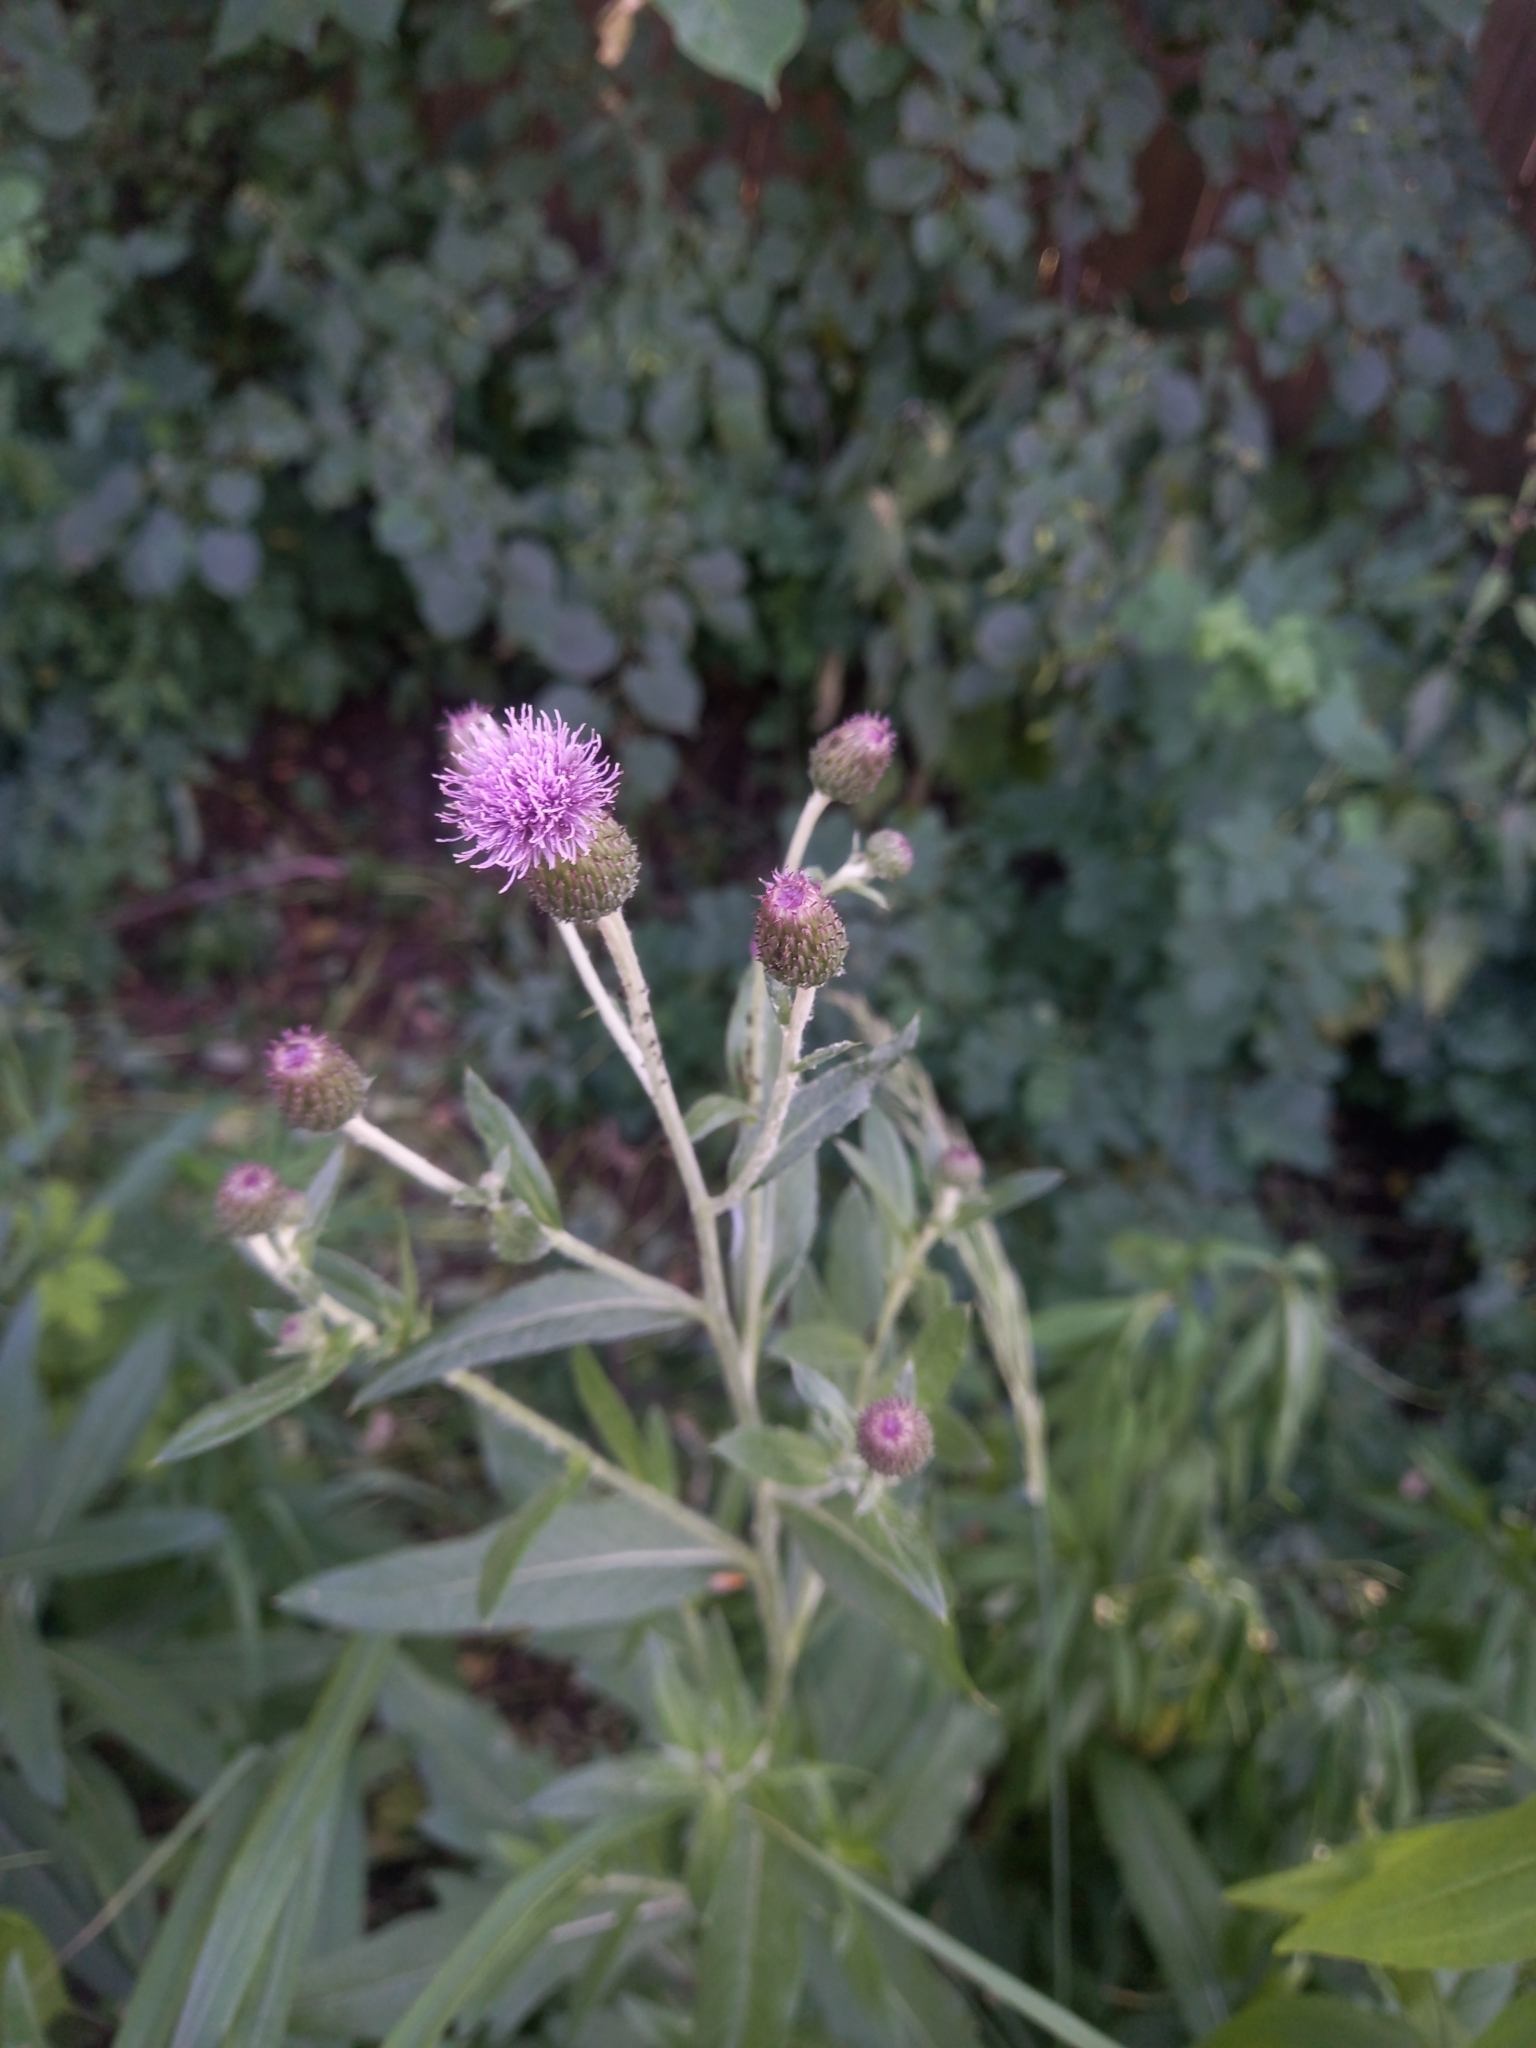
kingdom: Plantae
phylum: Tracheophyta
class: Magnoliopsida
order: Asterales
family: Asteraceae
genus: Cirsium
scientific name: Cirsium arvense
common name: Creeping thistle
